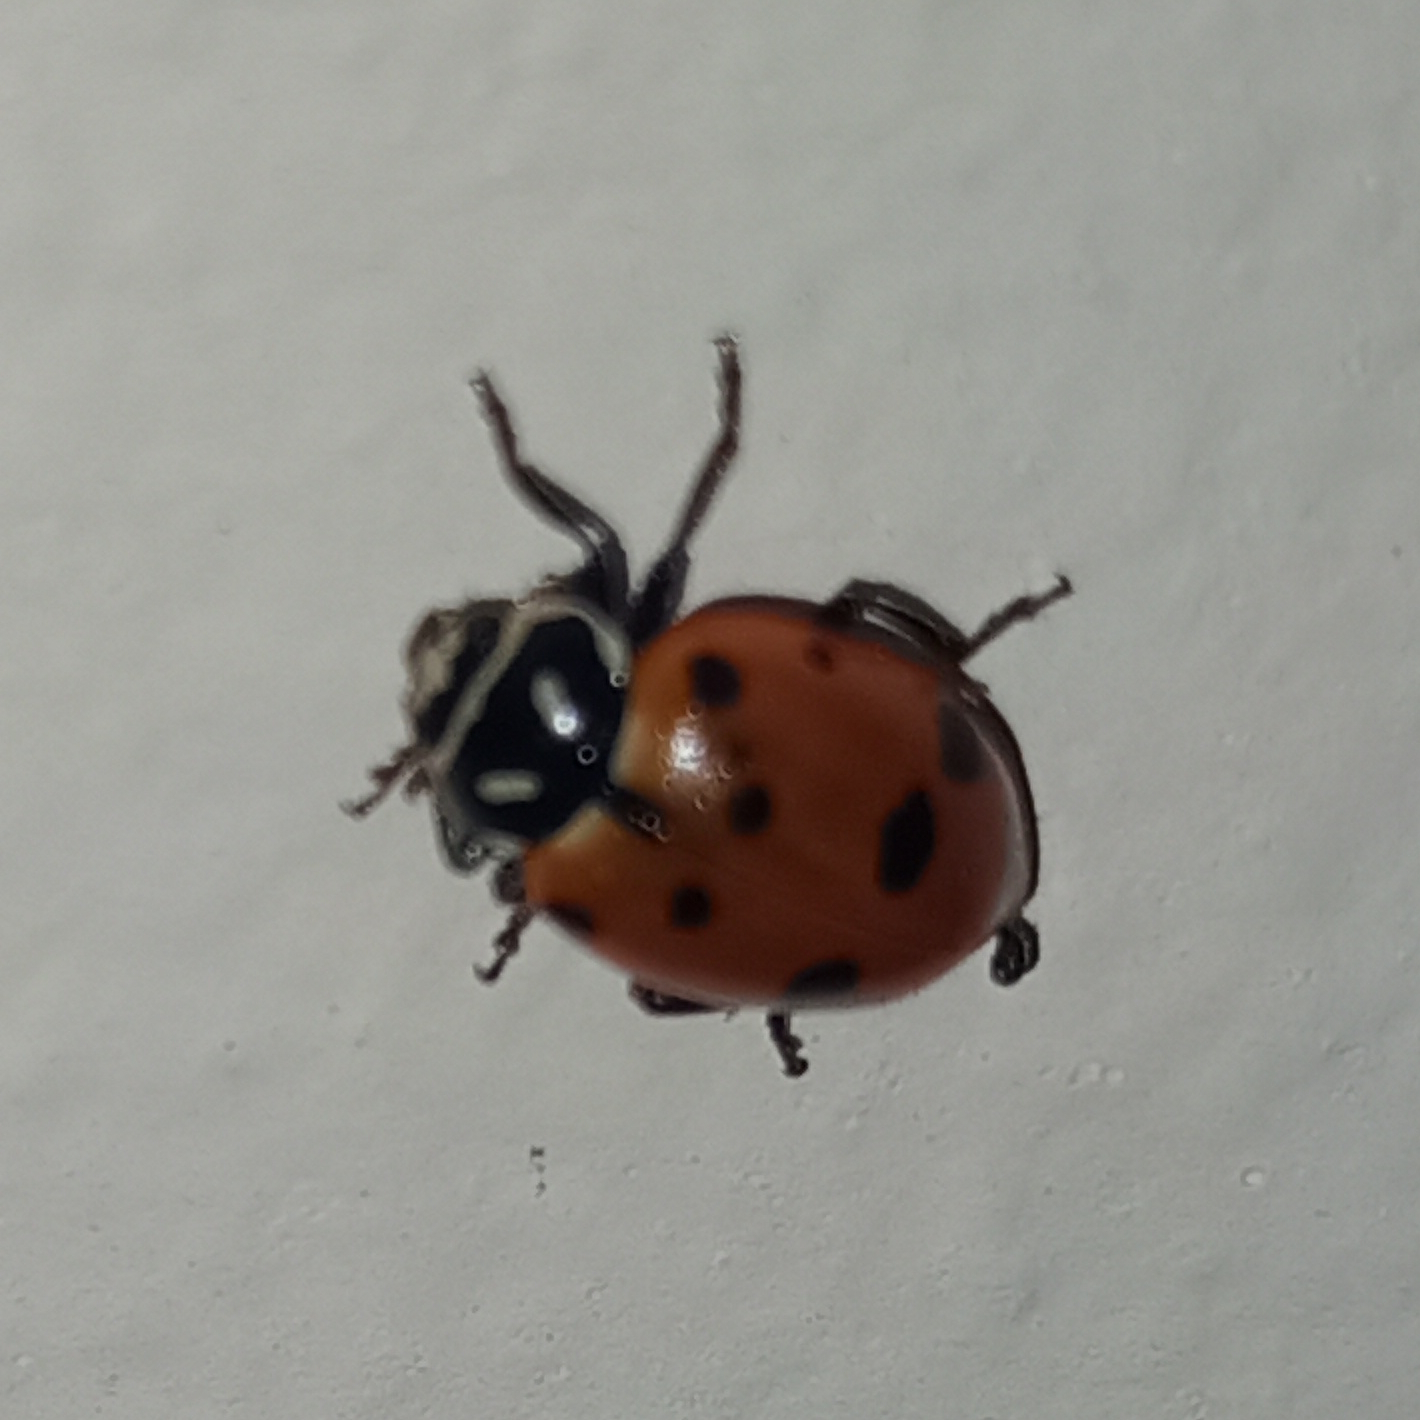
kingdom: Animalia
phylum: Arthropoda
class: Insecta
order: Coleoptera
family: Coccinellidae
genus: Hippodamia
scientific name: Hippodamia convergens
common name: Convergent lady beetle
